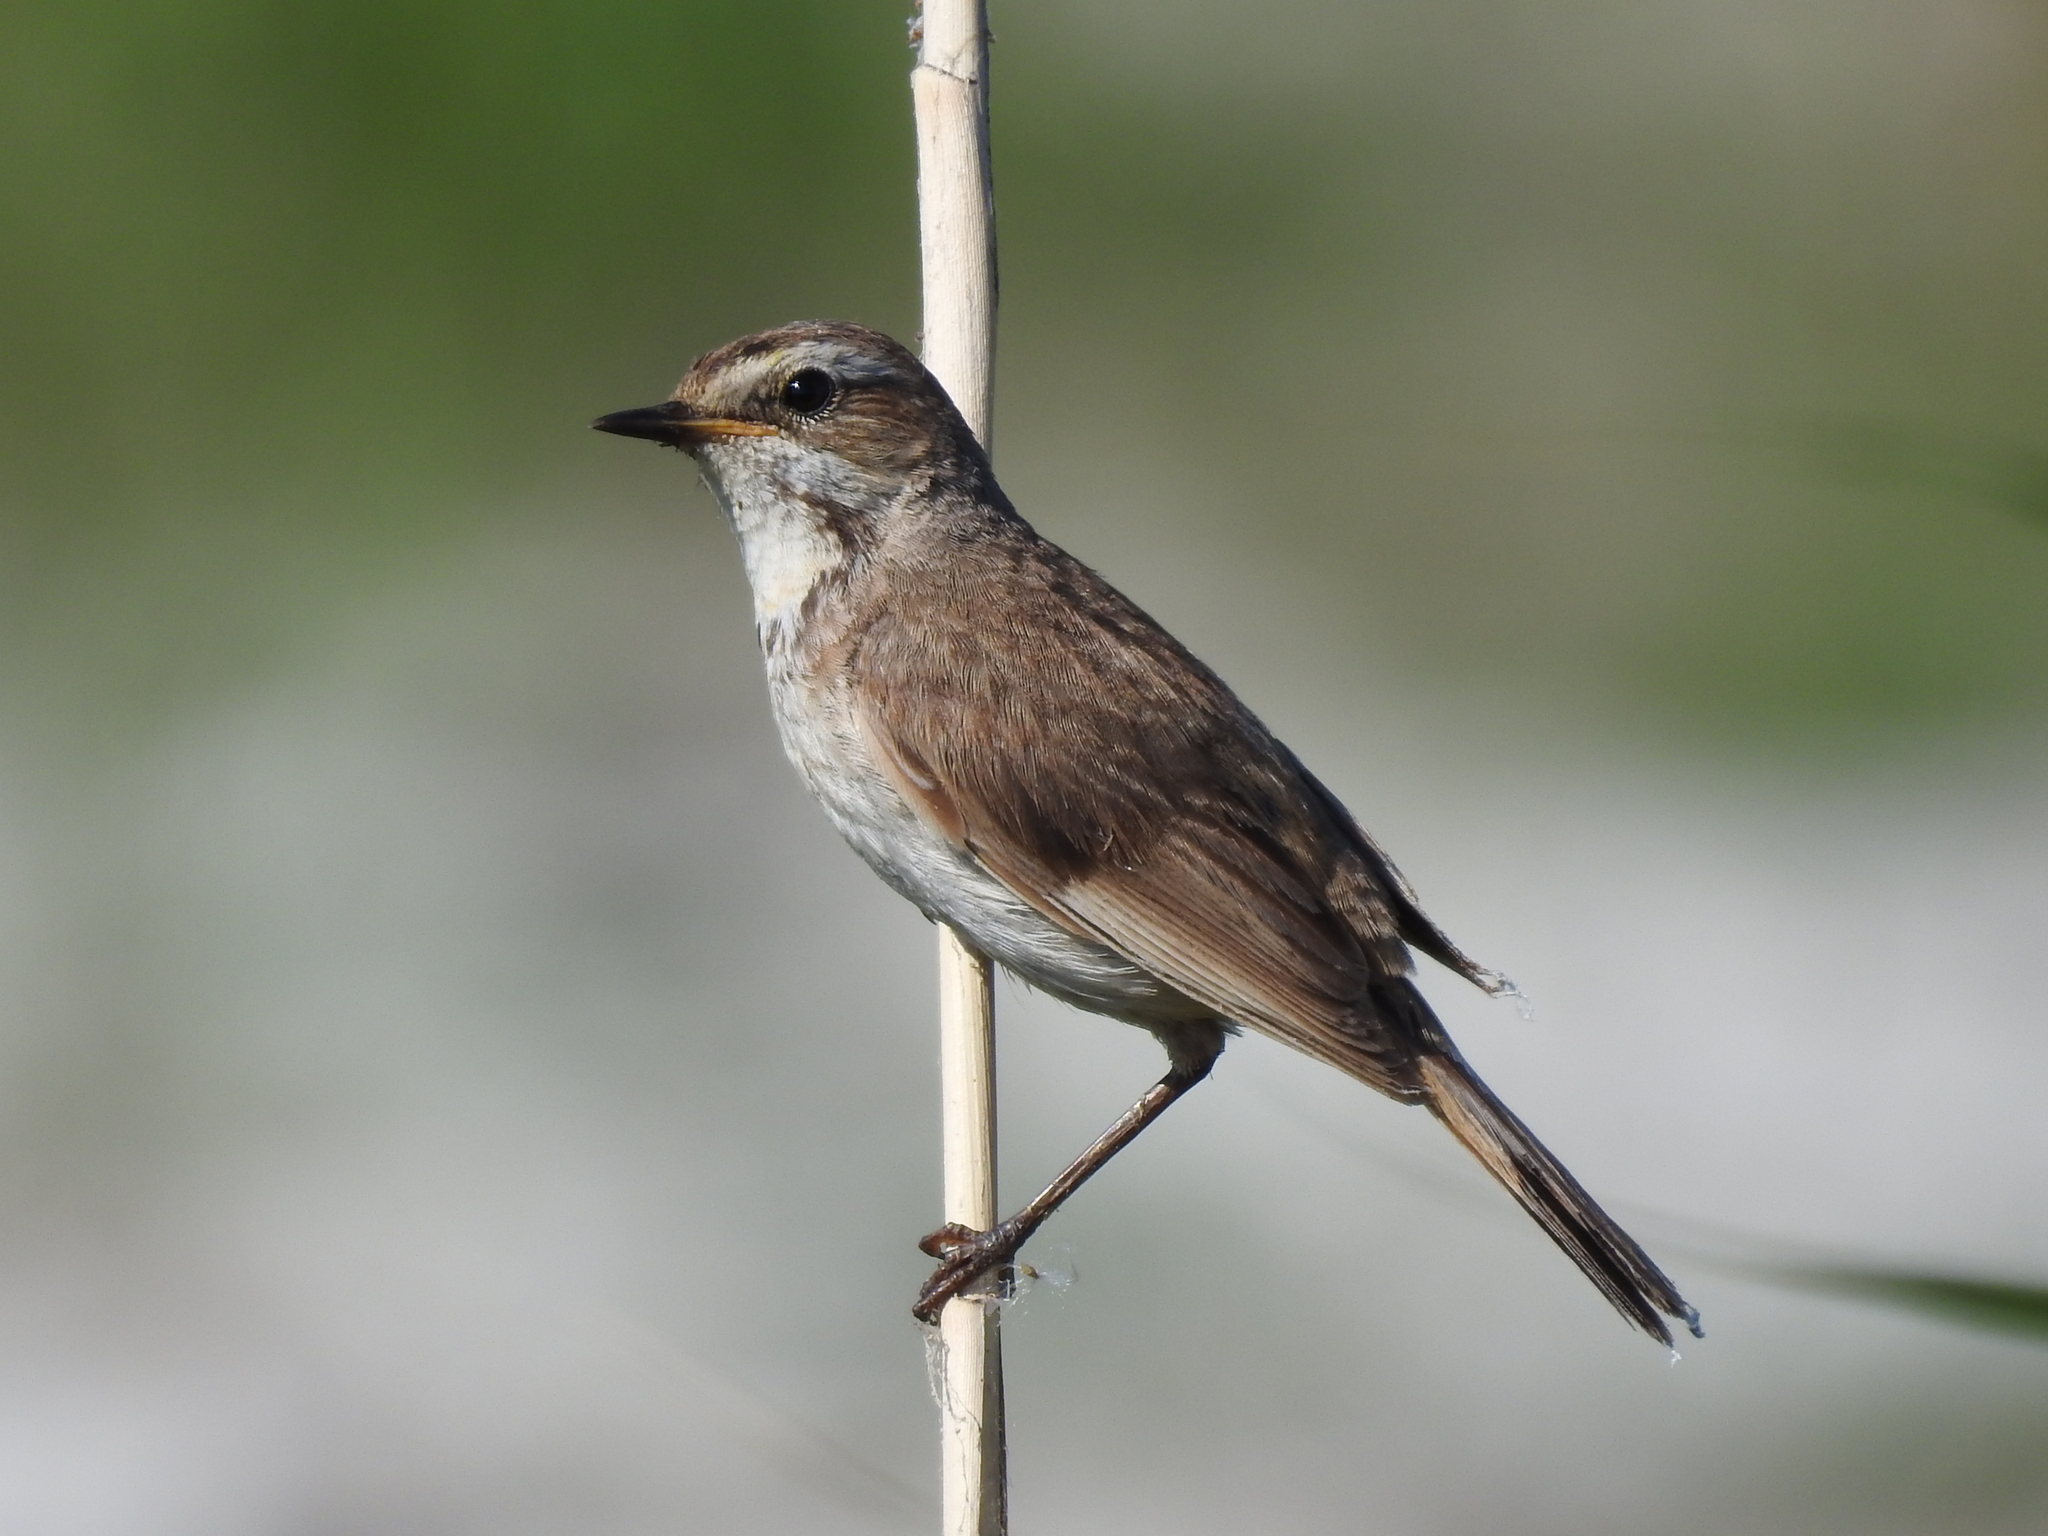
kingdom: Animalia
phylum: Chordata
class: Aves
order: Passeriformes
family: Muscicapidae
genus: Luscinia
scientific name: Luscinia svecica
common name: Bluethroat
